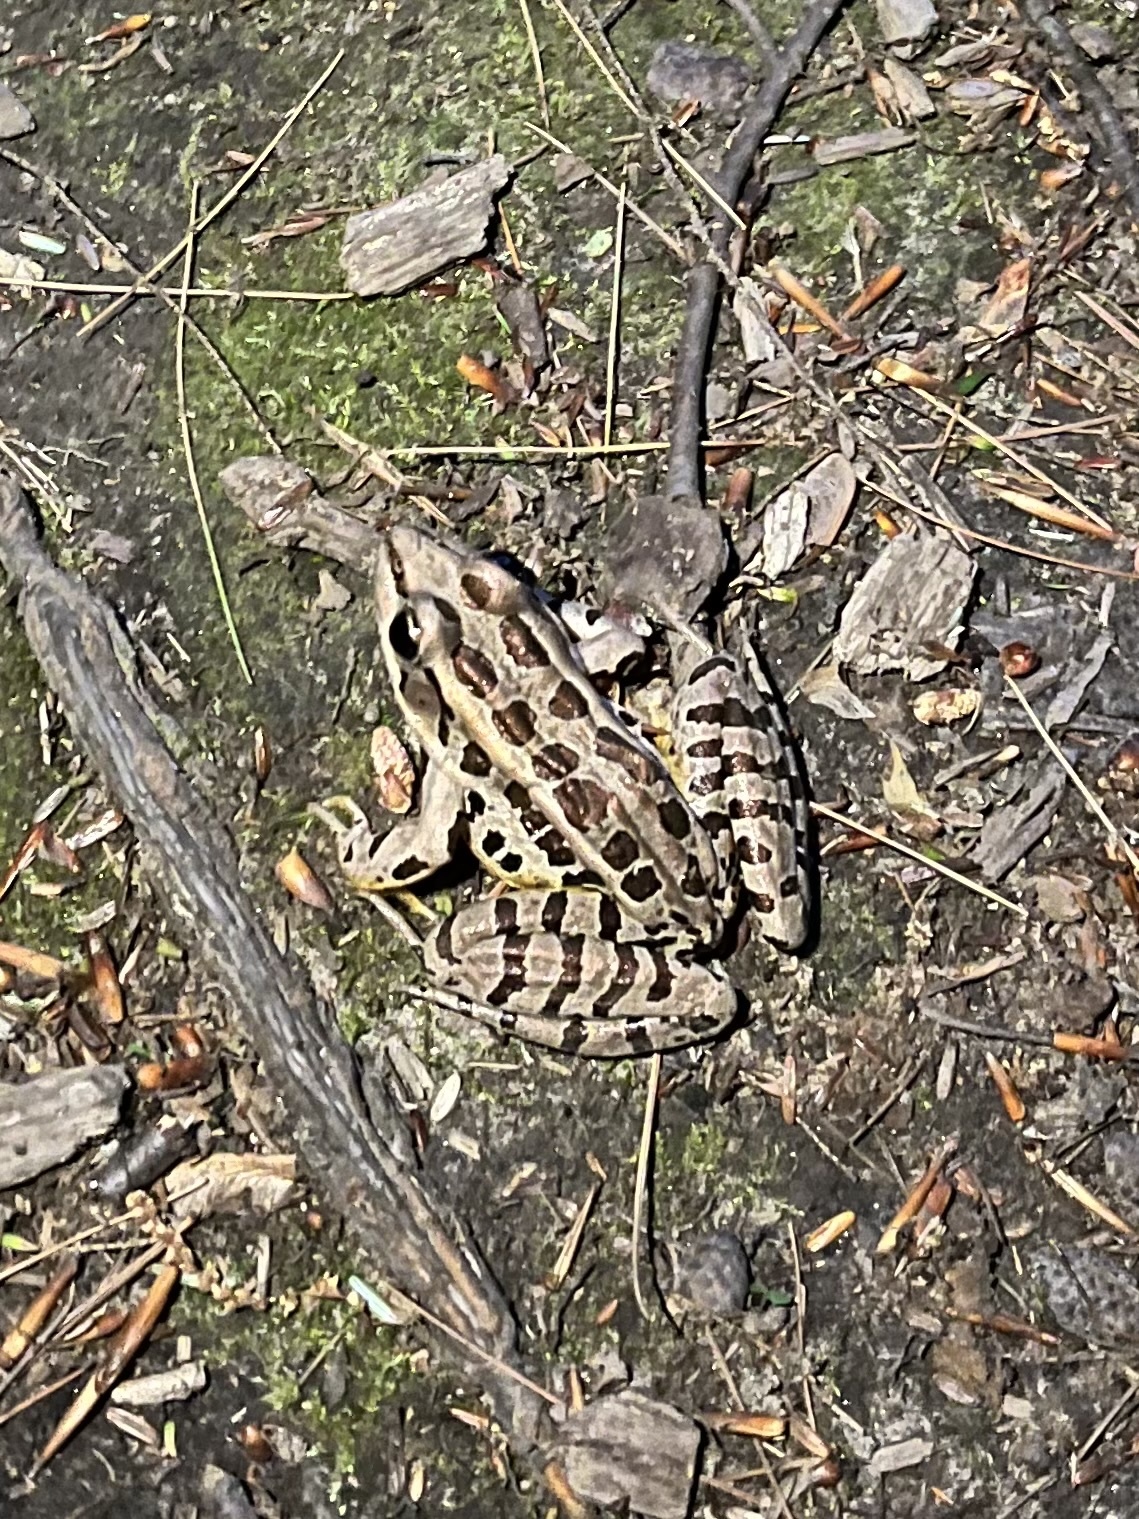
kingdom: Animalia
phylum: Chordata
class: Amphibia
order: Anura
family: Ranidae
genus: Lithobates
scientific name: Lithobates palustris
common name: Pickerel frog
